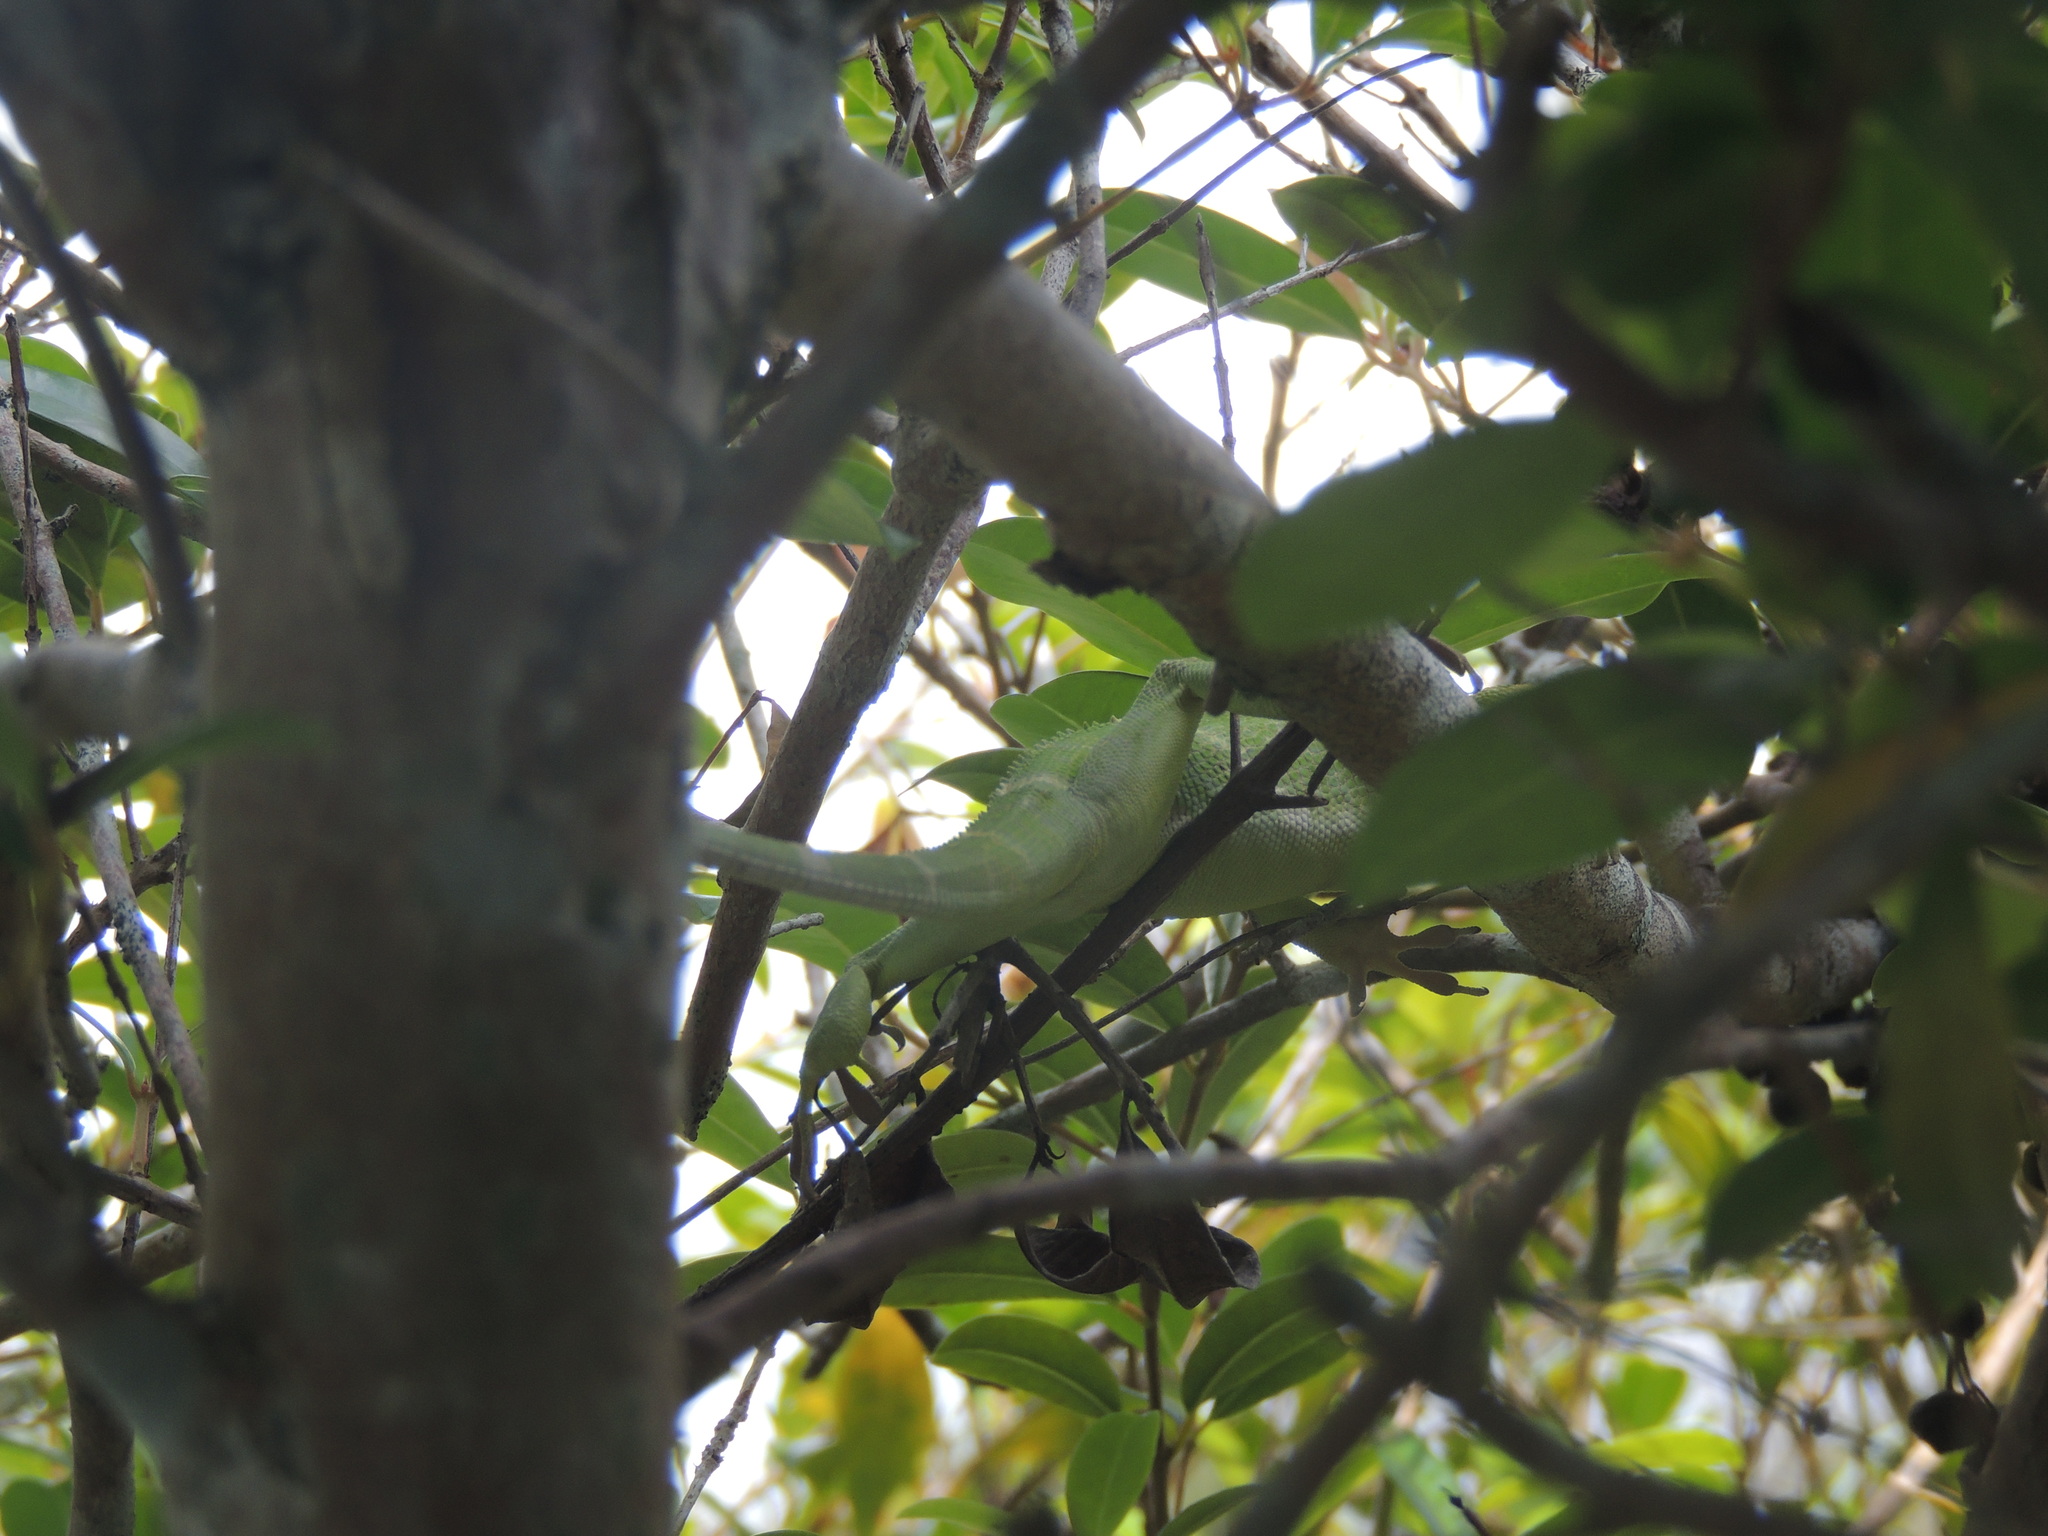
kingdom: Animalia
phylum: Chordata
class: Squamata
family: Dactyloidae
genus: Anolis
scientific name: Anolis equestris
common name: Knight anole
